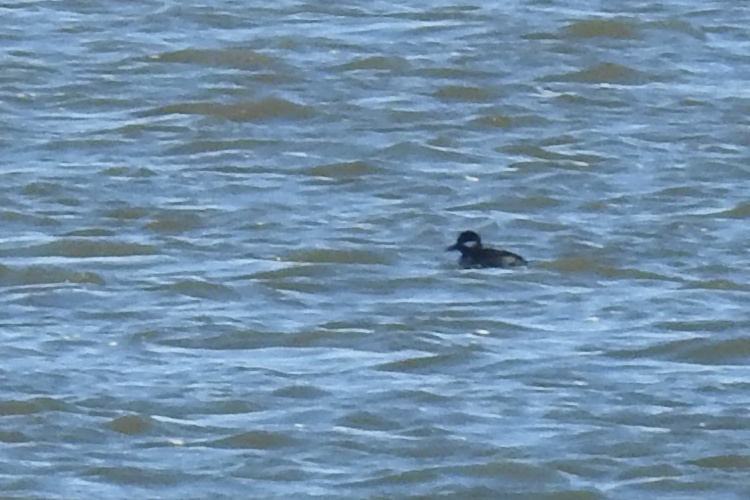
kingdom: Animalia
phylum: Chordata
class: Aves
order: Anseriformes
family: Anatidae
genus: Bucephala
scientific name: Bucephala albeola
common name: Bufflehead
